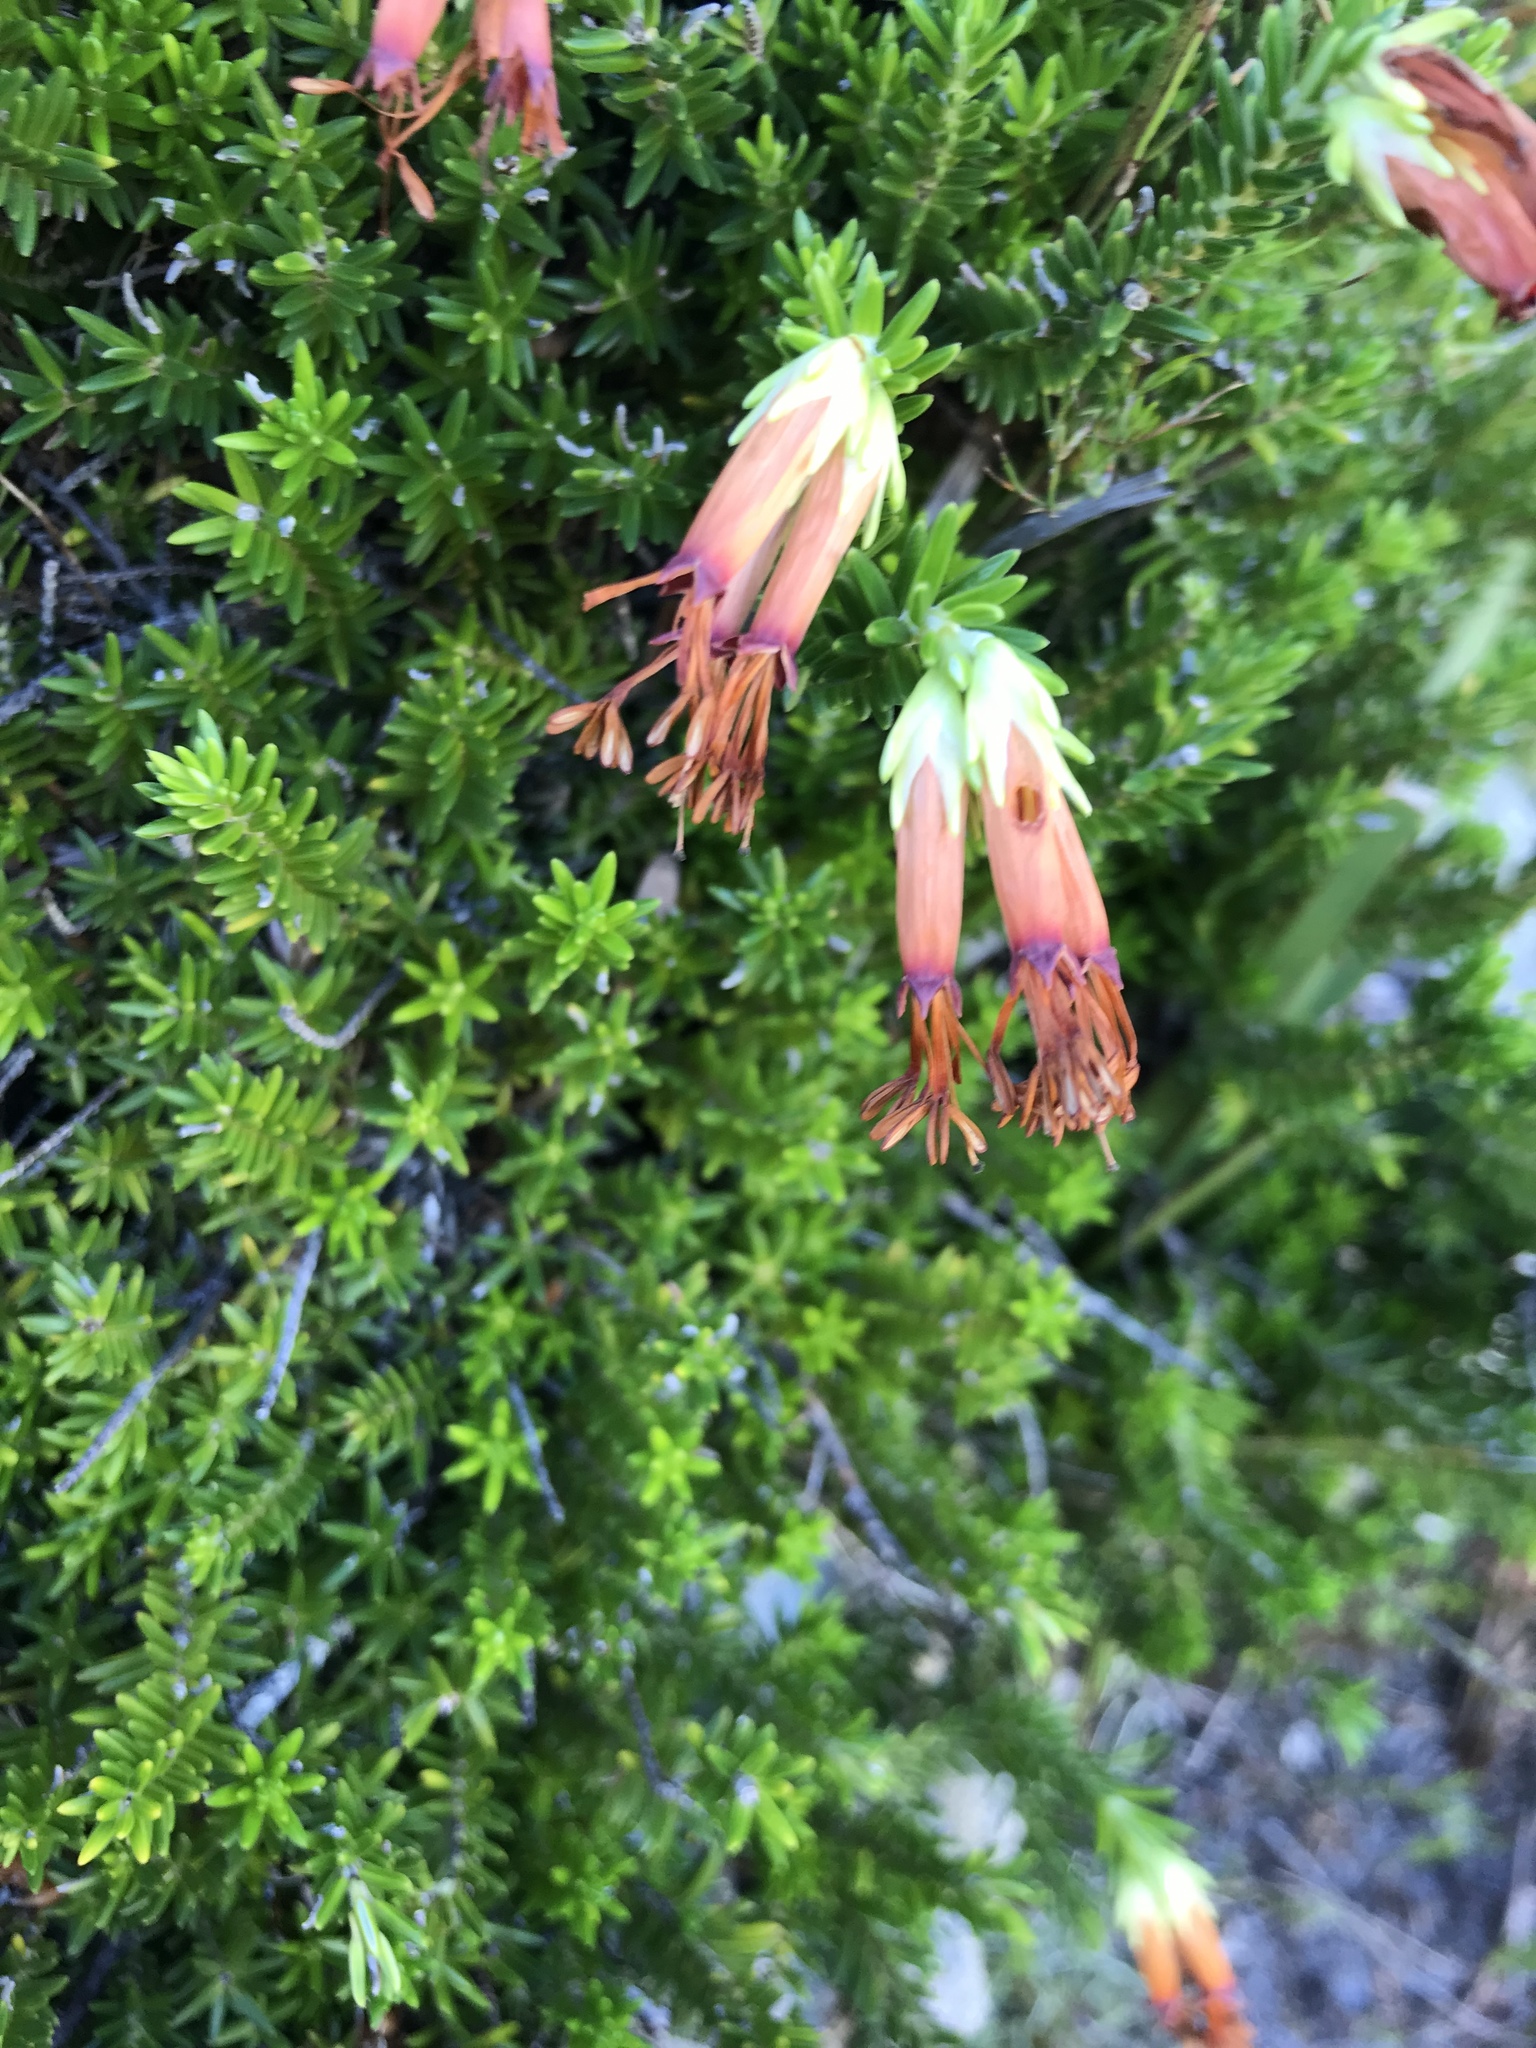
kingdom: Plantae
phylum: Tracheophyta
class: Magnoliopsida
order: Ericales
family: Ericaceae
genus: Erica
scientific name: Erica banksia
